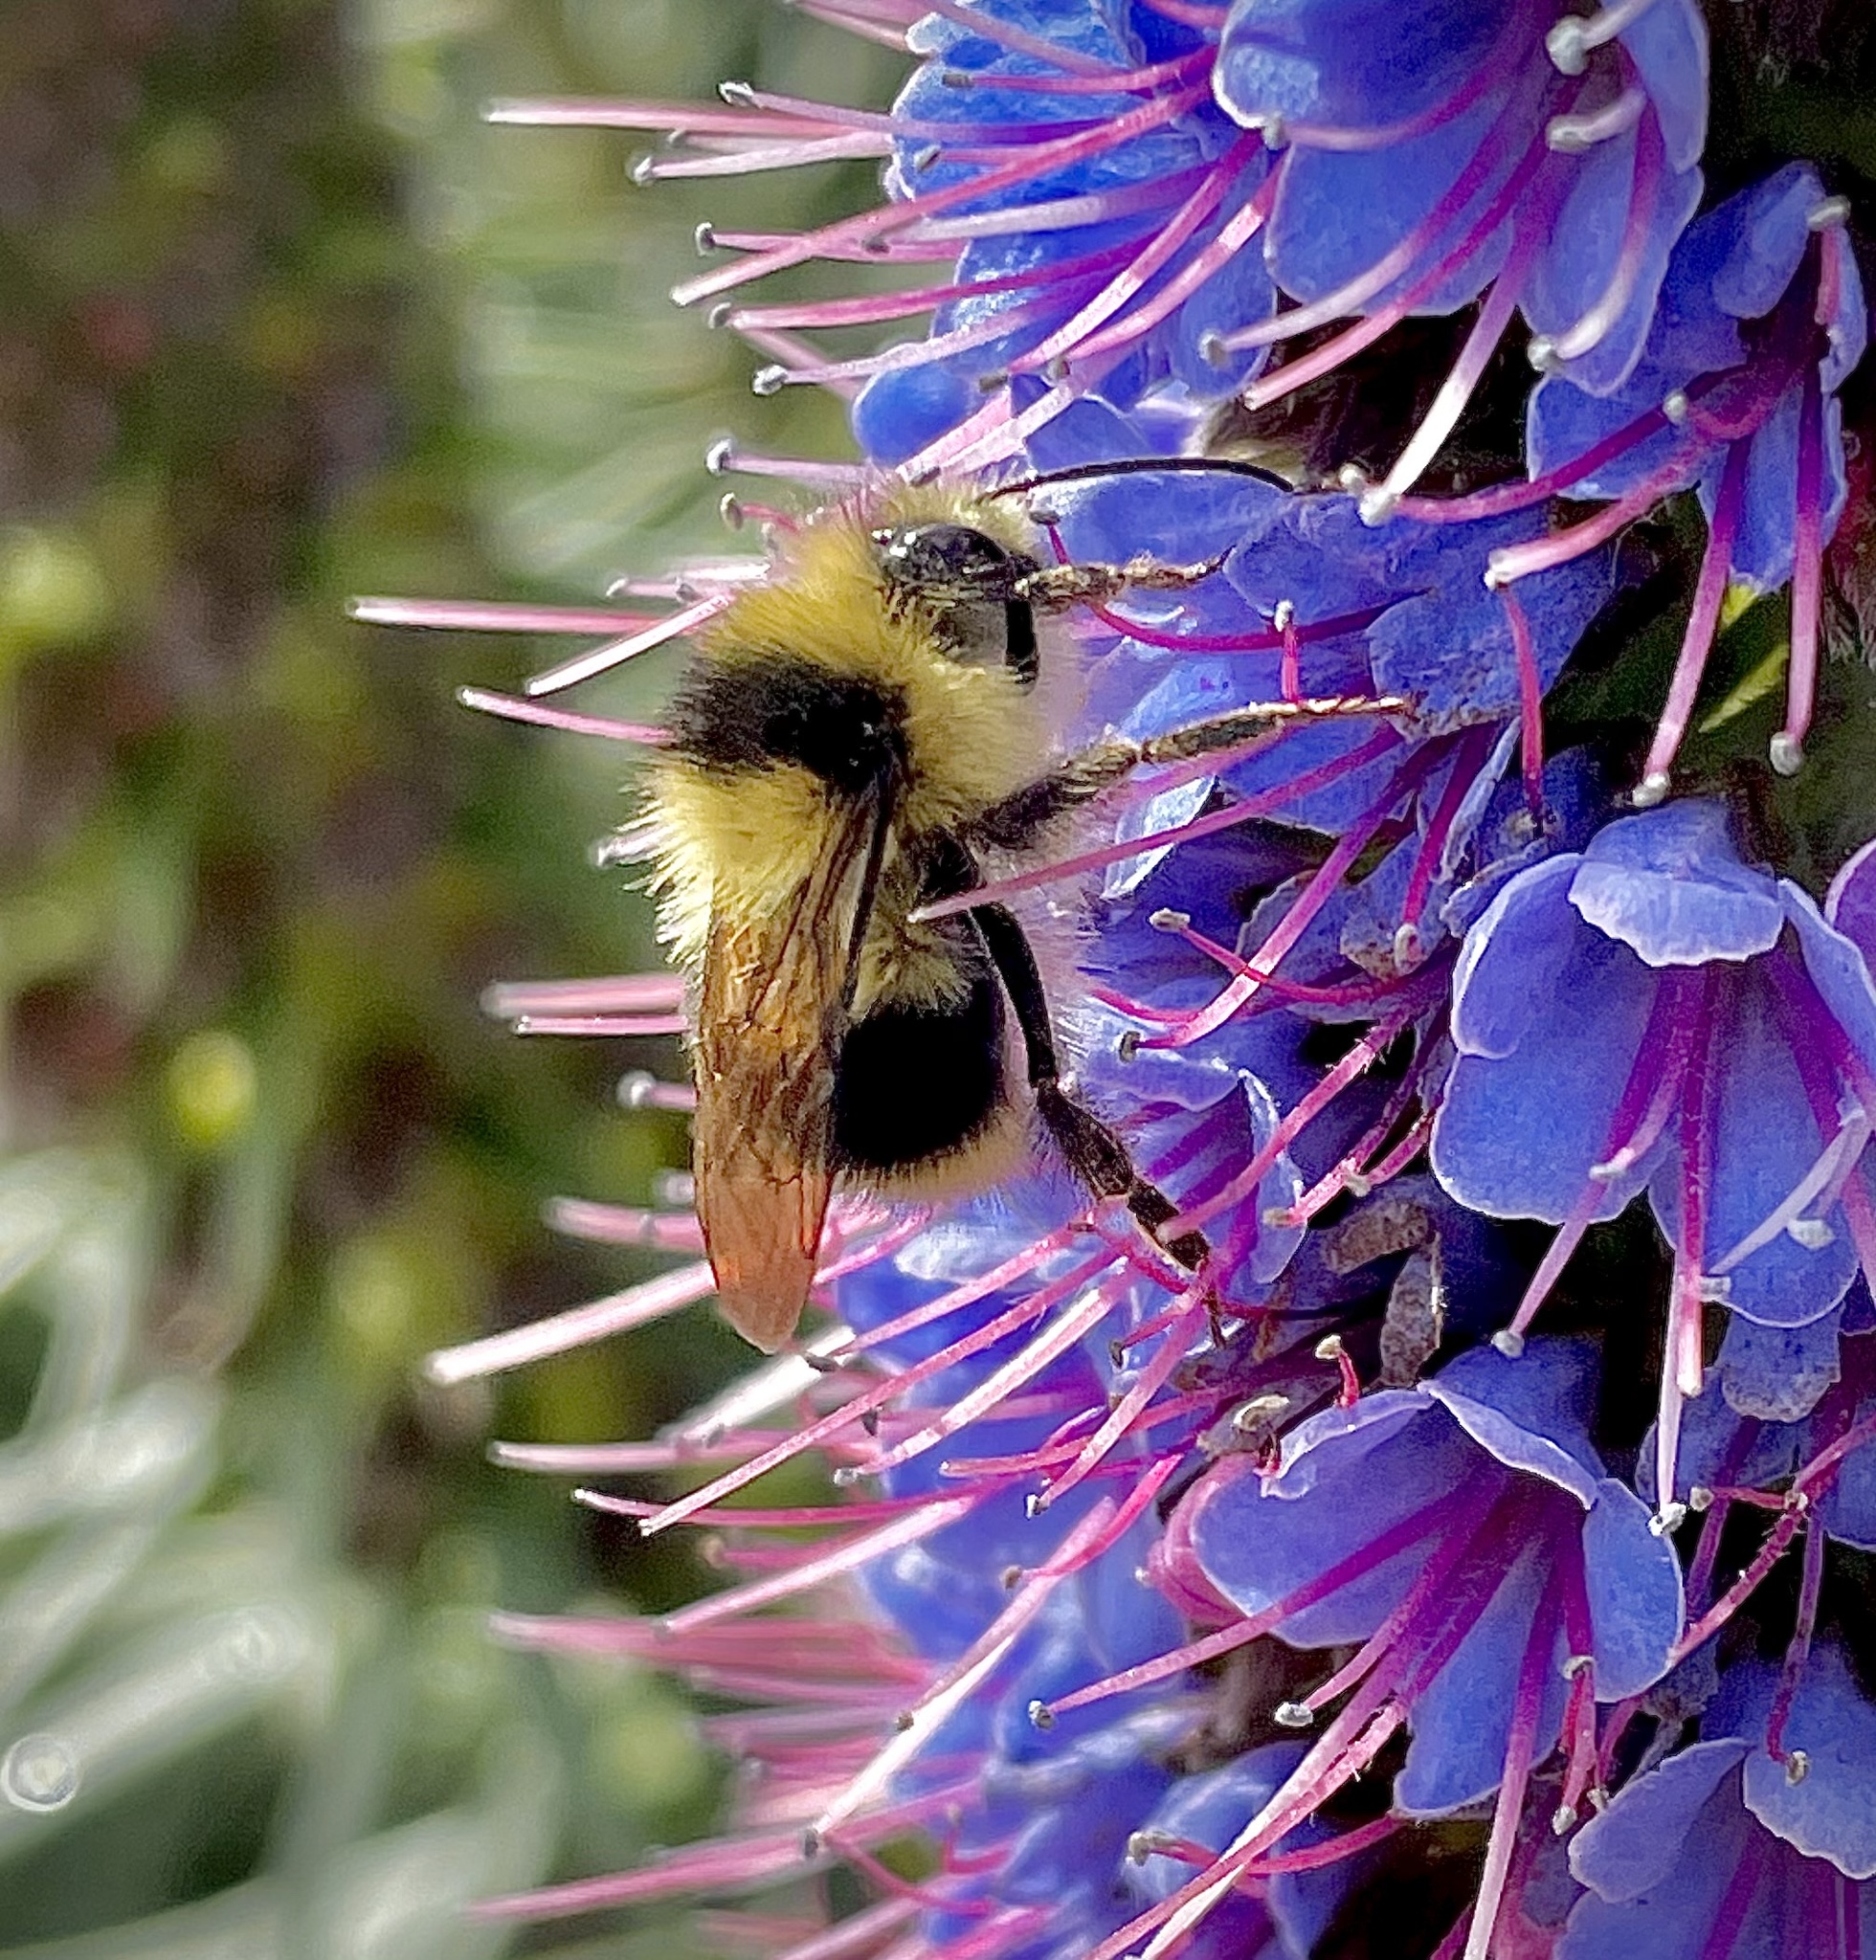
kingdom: Animalia
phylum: Arthropoda
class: Insecta
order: Hymenoptera
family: Apidae
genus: Bombus
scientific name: Bombus melanopygus
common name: Black tail bumble bee
